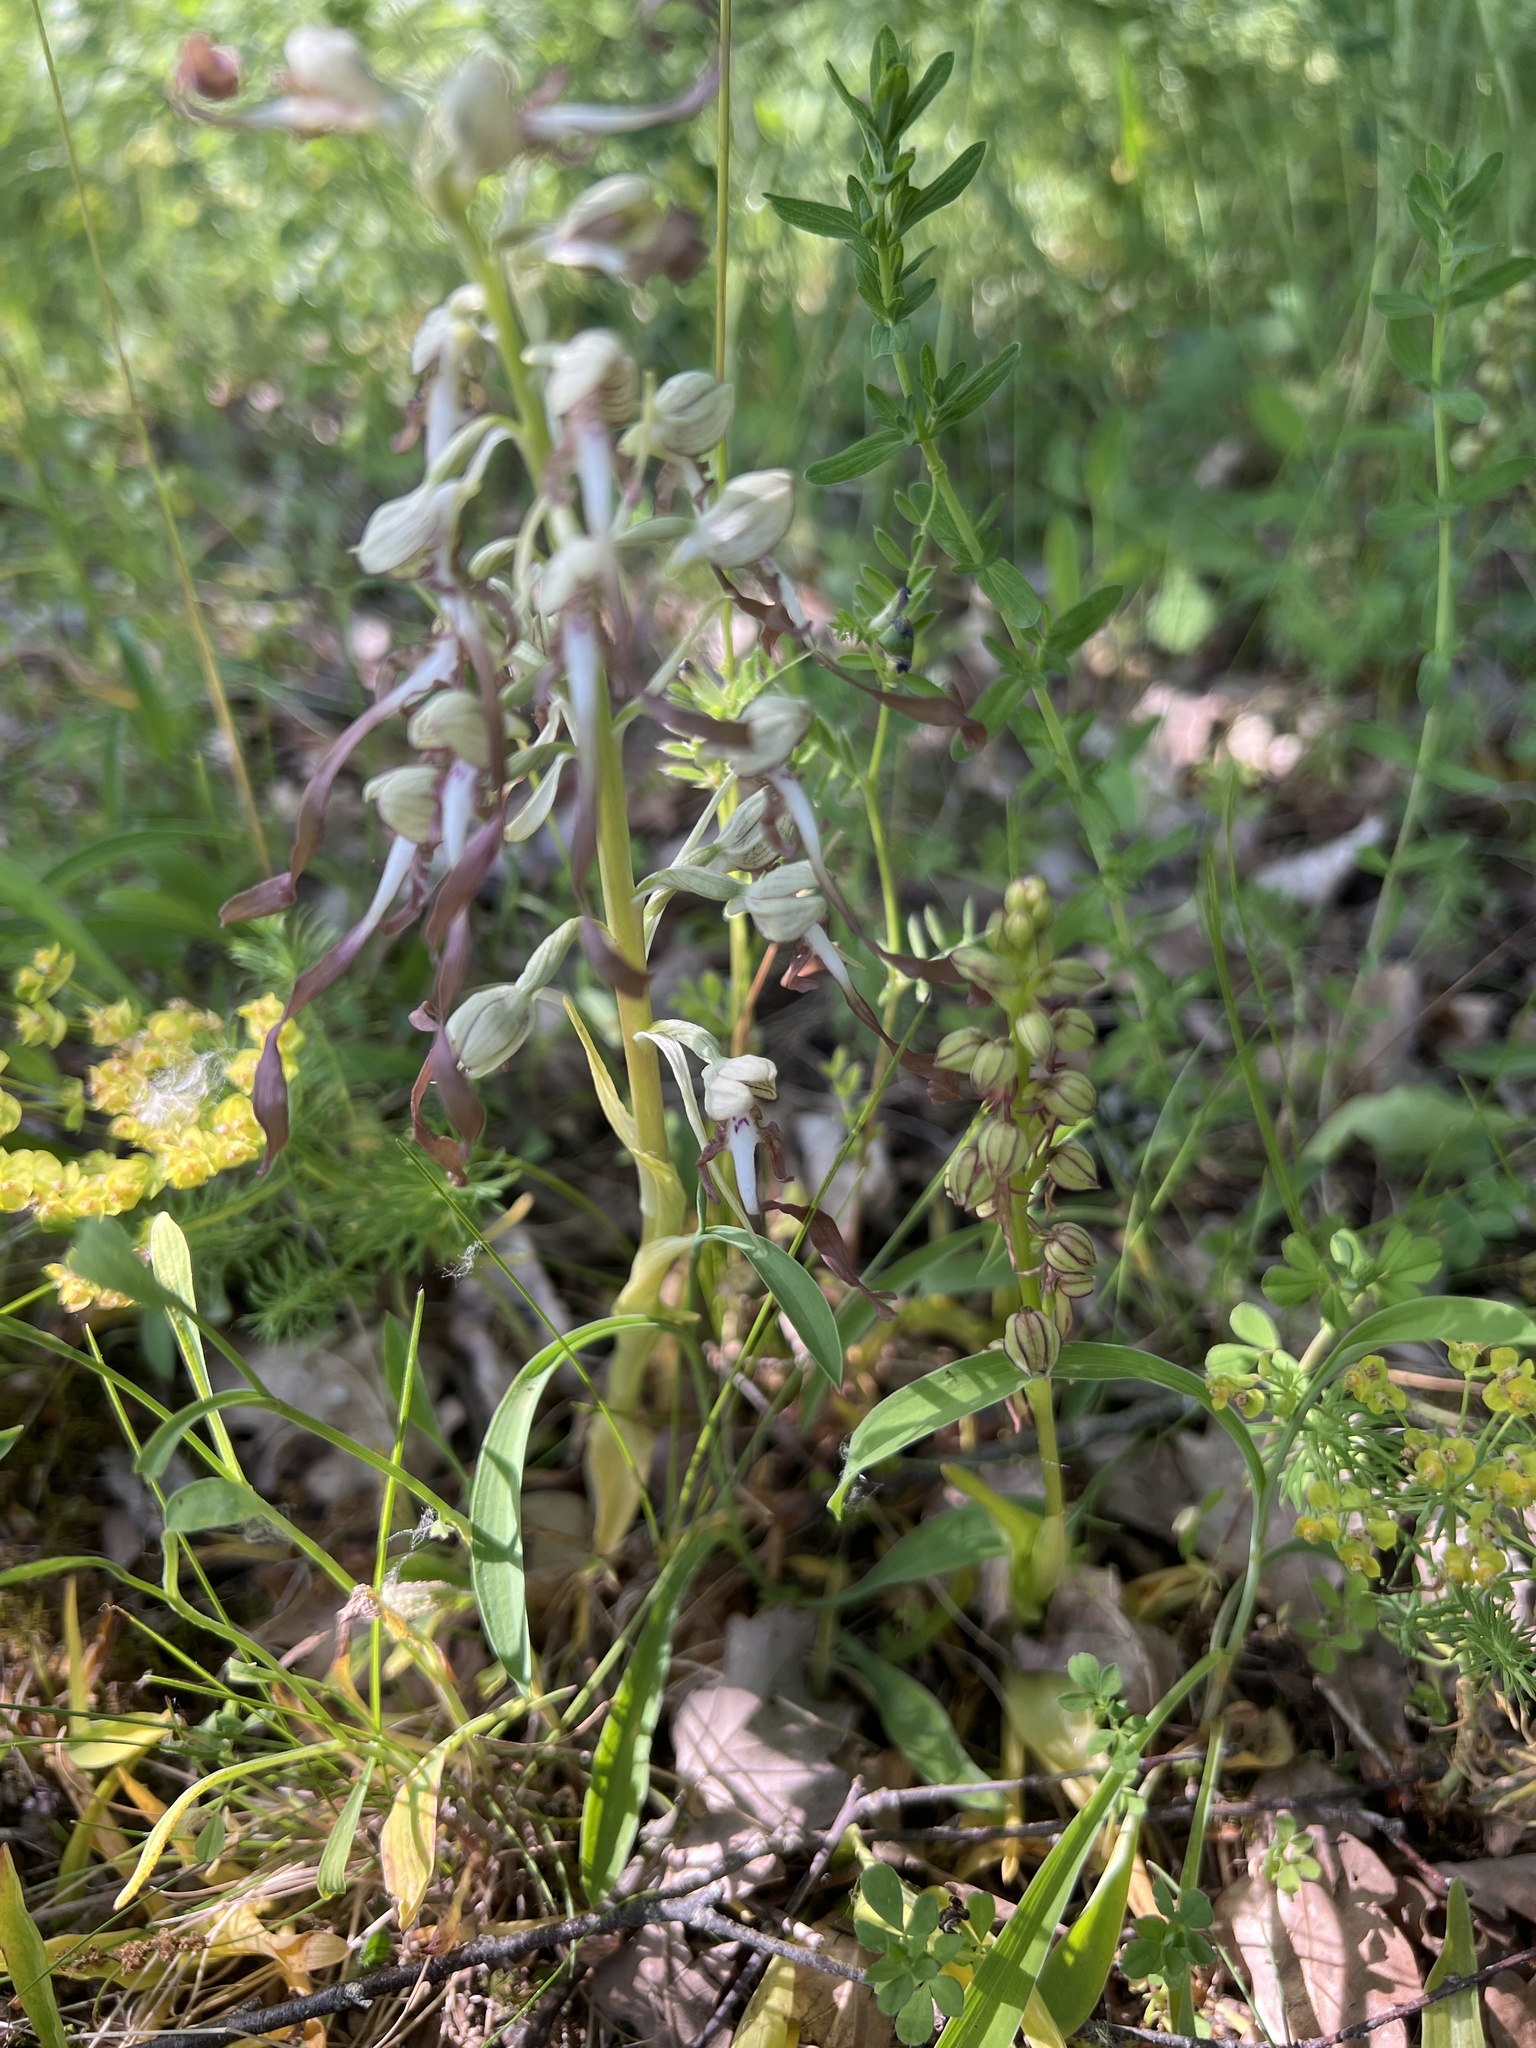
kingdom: Plantae
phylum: Tracheophyta
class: Liliopsida
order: Asparagales
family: Orchidaceae
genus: Himantoglossum
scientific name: Himantoglossum hircinum
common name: Lizard orchid
